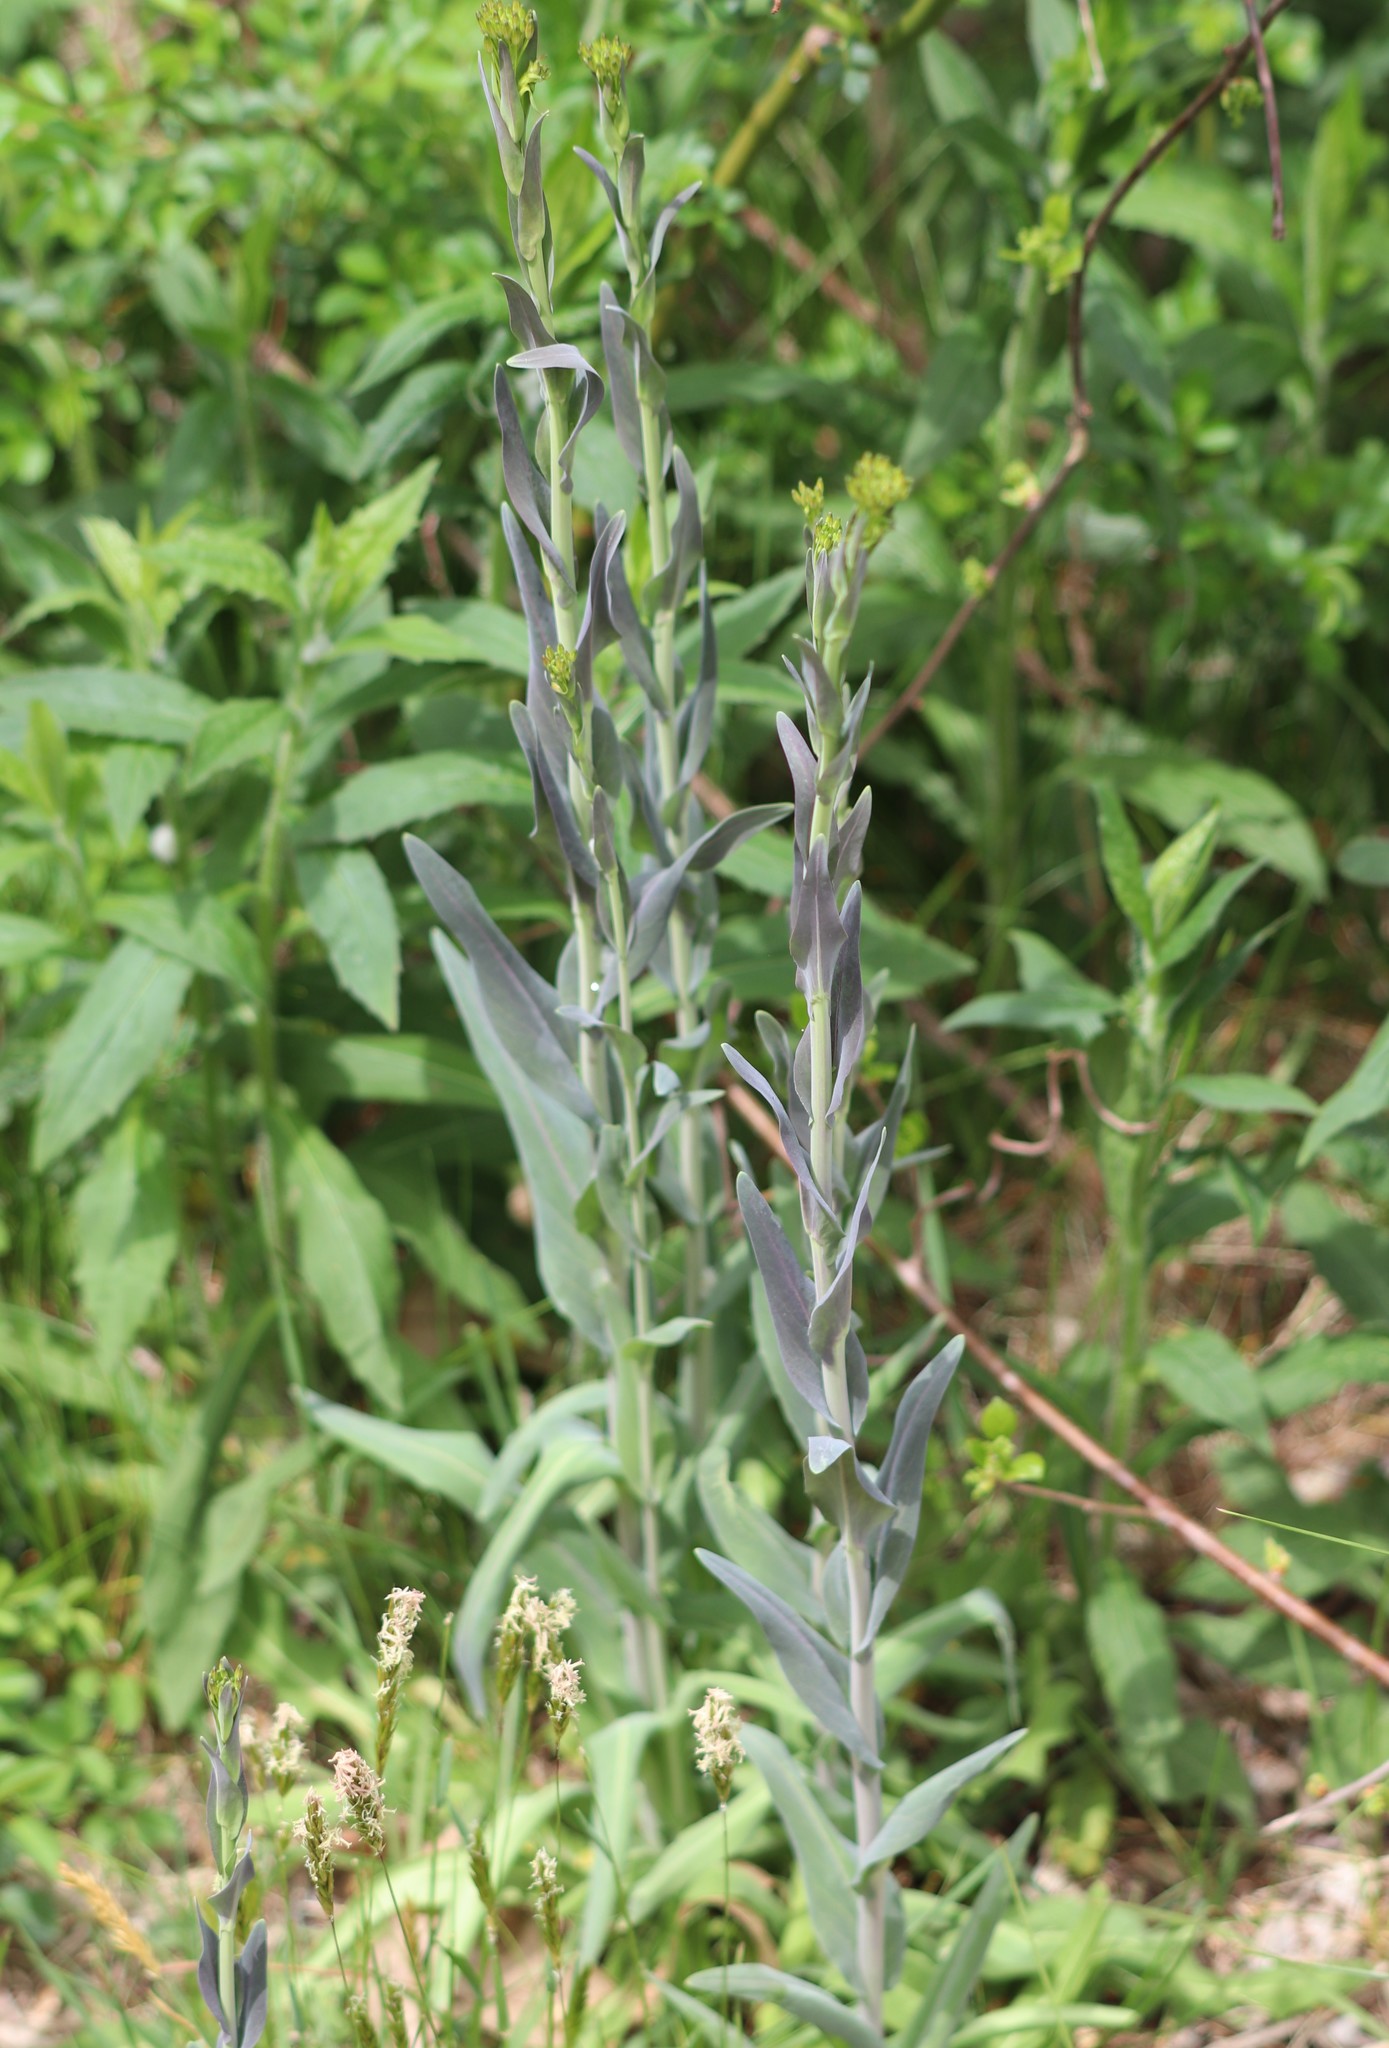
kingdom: Plantae
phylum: Tracheophyta
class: Magnoliopsida
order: Brassicales
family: Brassicaceae
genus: Turritis
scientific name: Turritis glabra
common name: Tower rockcress
